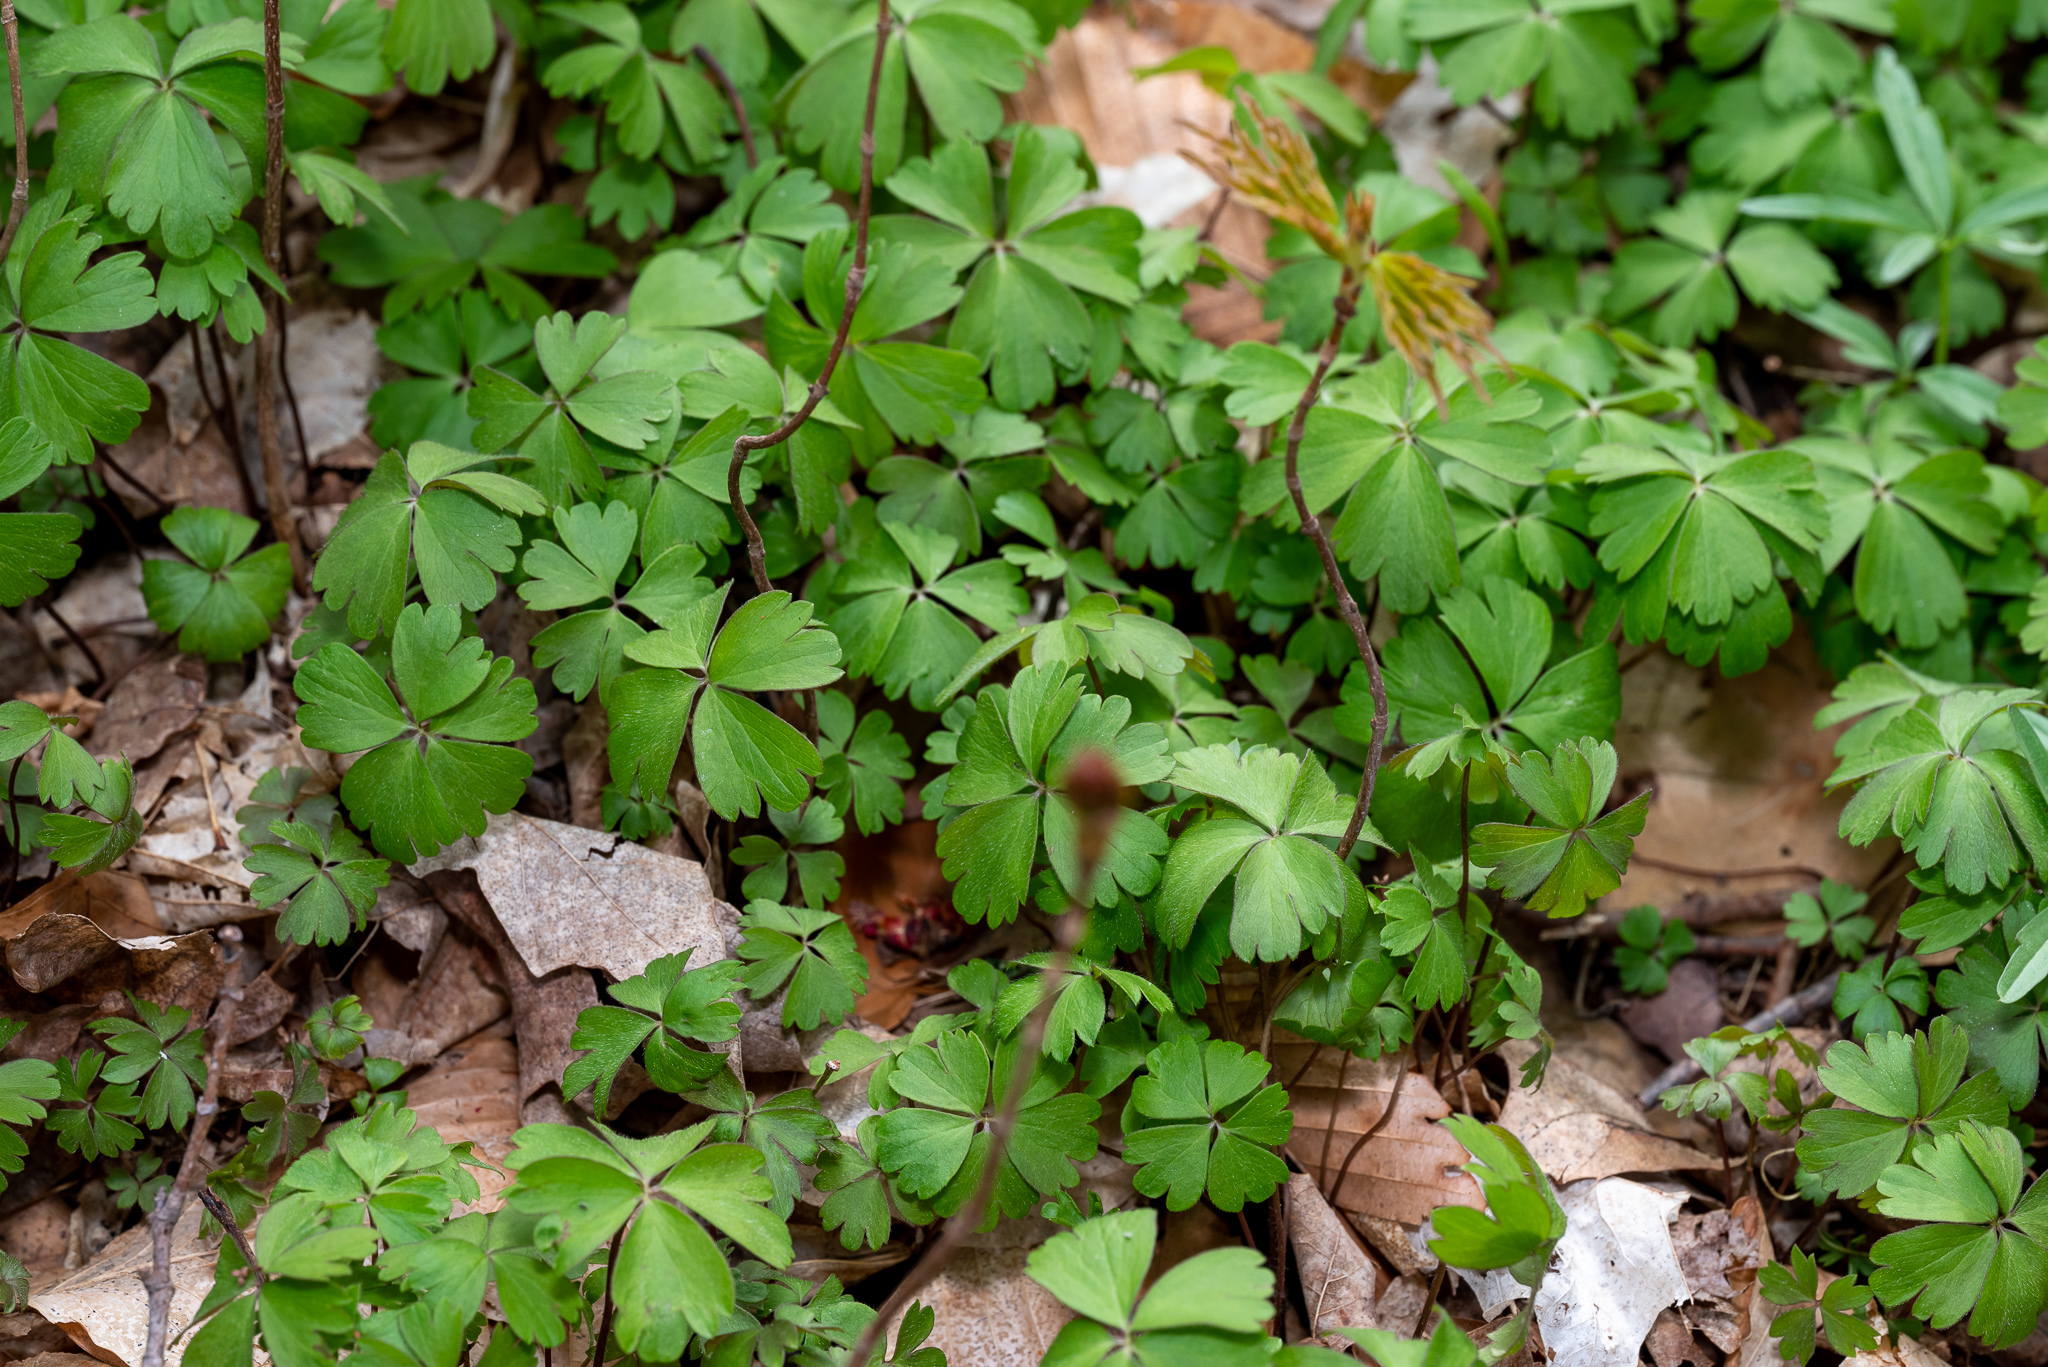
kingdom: Plantae
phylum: Tracheophyta
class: Magnoliopsida
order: Ranunculales
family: Ranunculaceae
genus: Anemone
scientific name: Anemone quinquefolia
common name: Wood anemone
